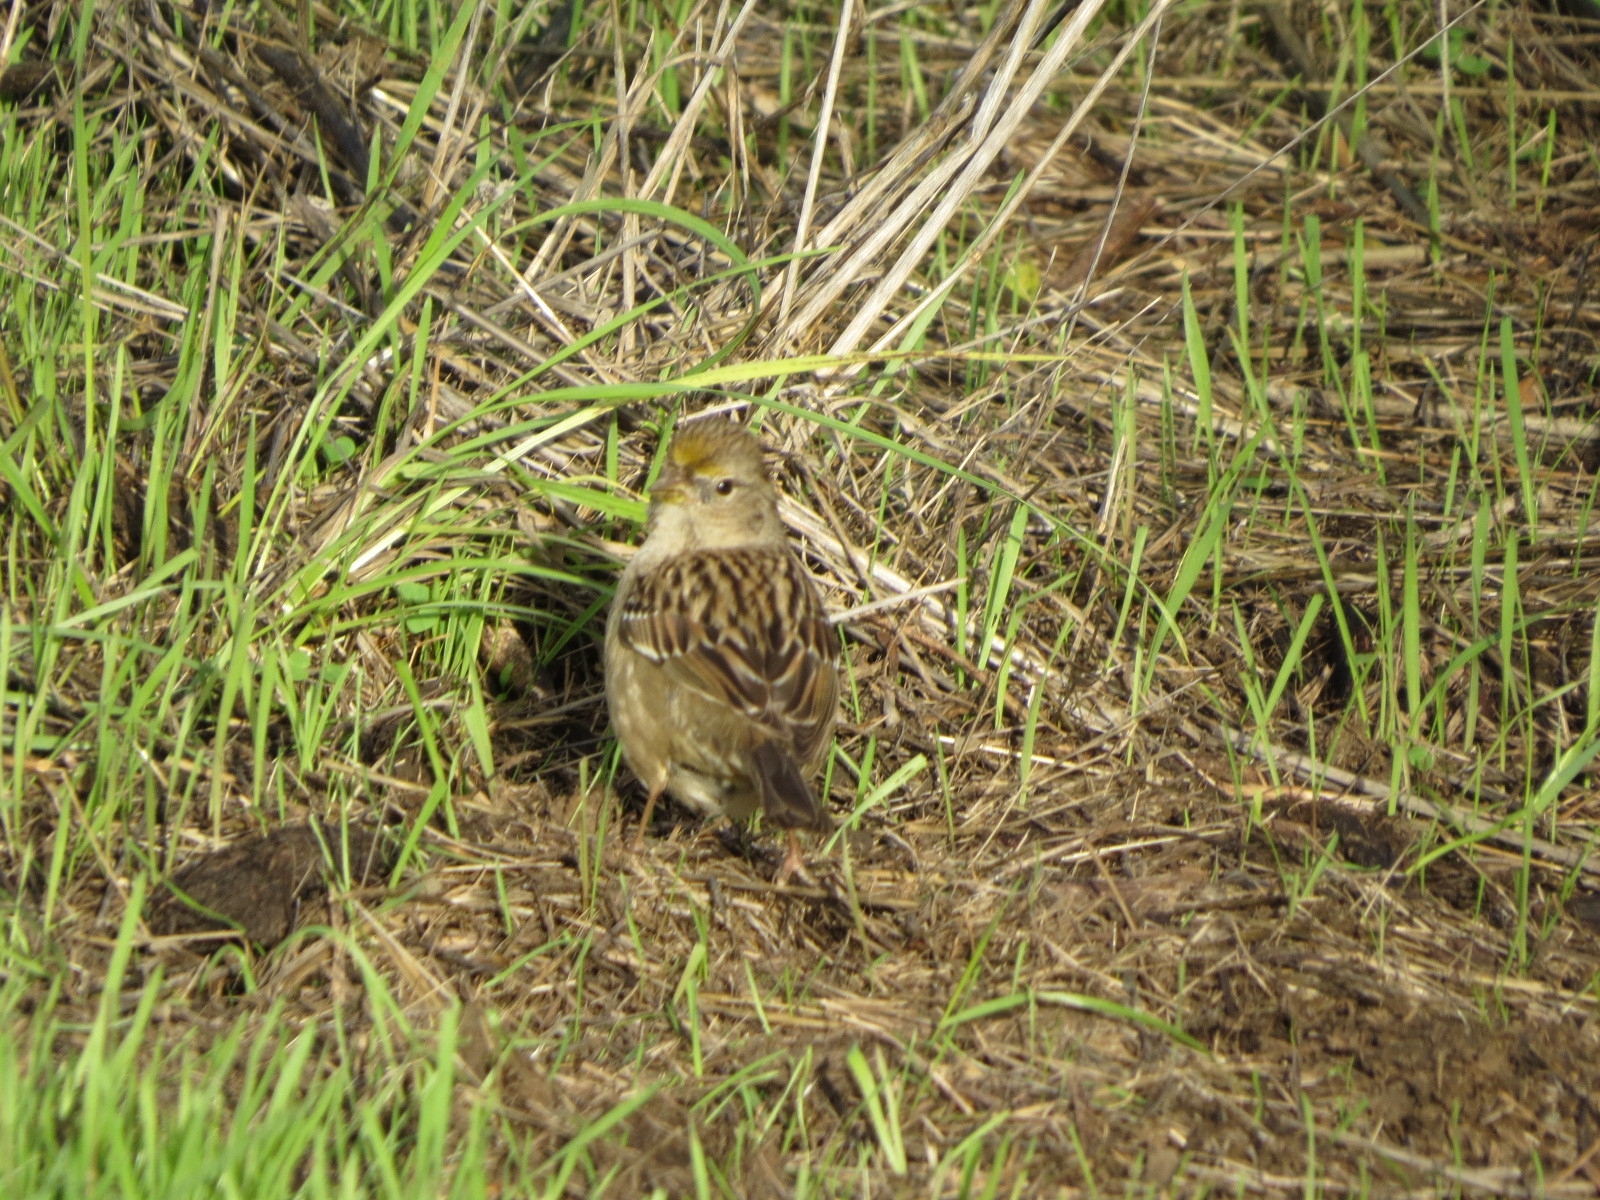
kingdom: Animalia
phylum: Chordata
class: Aves
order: Passeriformes
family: Passerellidae
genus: Zonotrichia
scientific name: Zonotrichia atricapilla
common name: Golden-crowned sparrow
